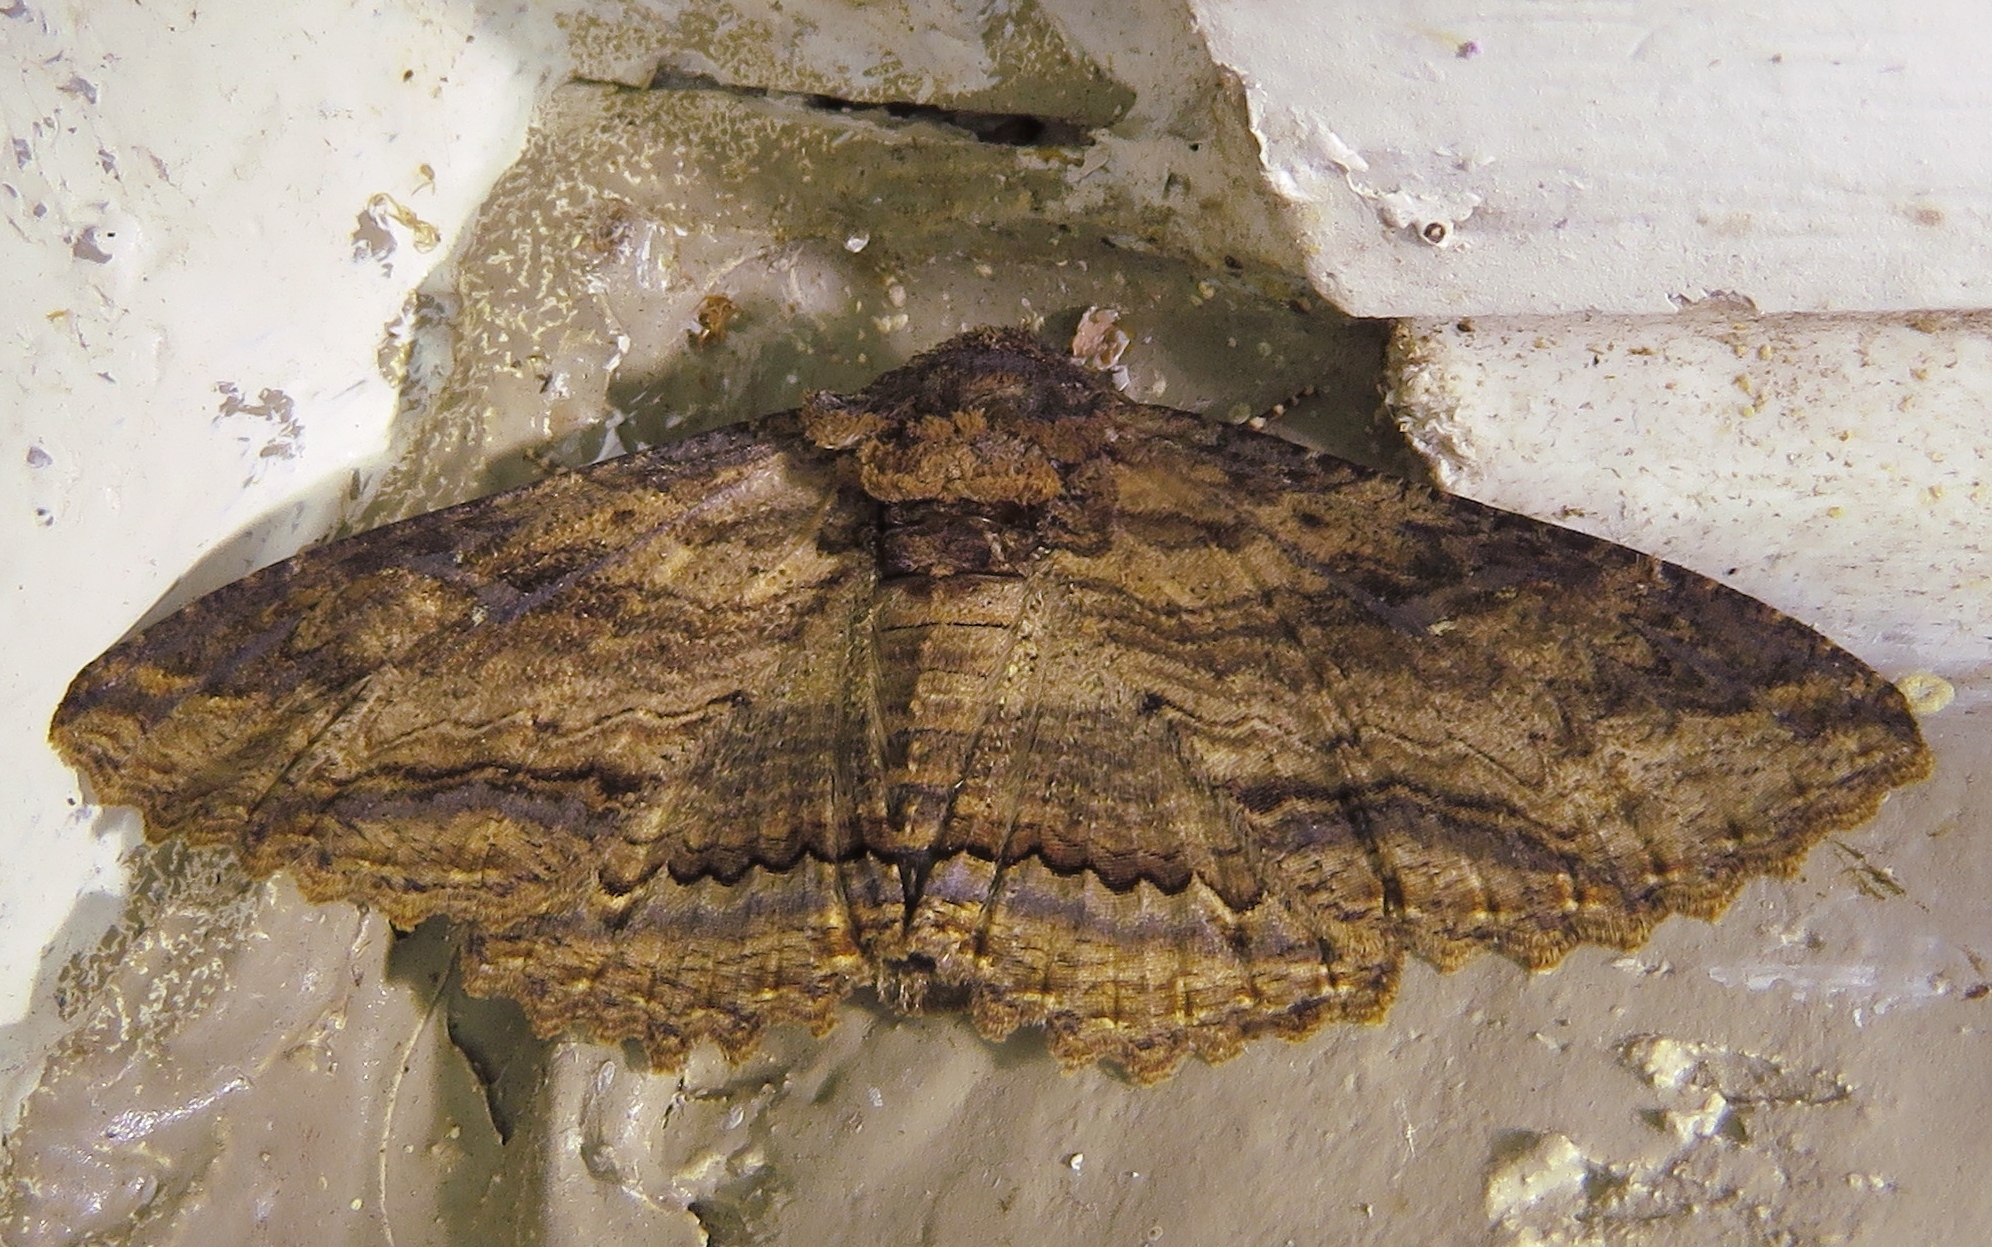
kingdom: Animalia
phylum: Arthropoda
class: Insecta
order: Lepidoptera
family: Erebidae
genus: Zale
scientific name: Zale lunata
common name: Lunate zale moth
